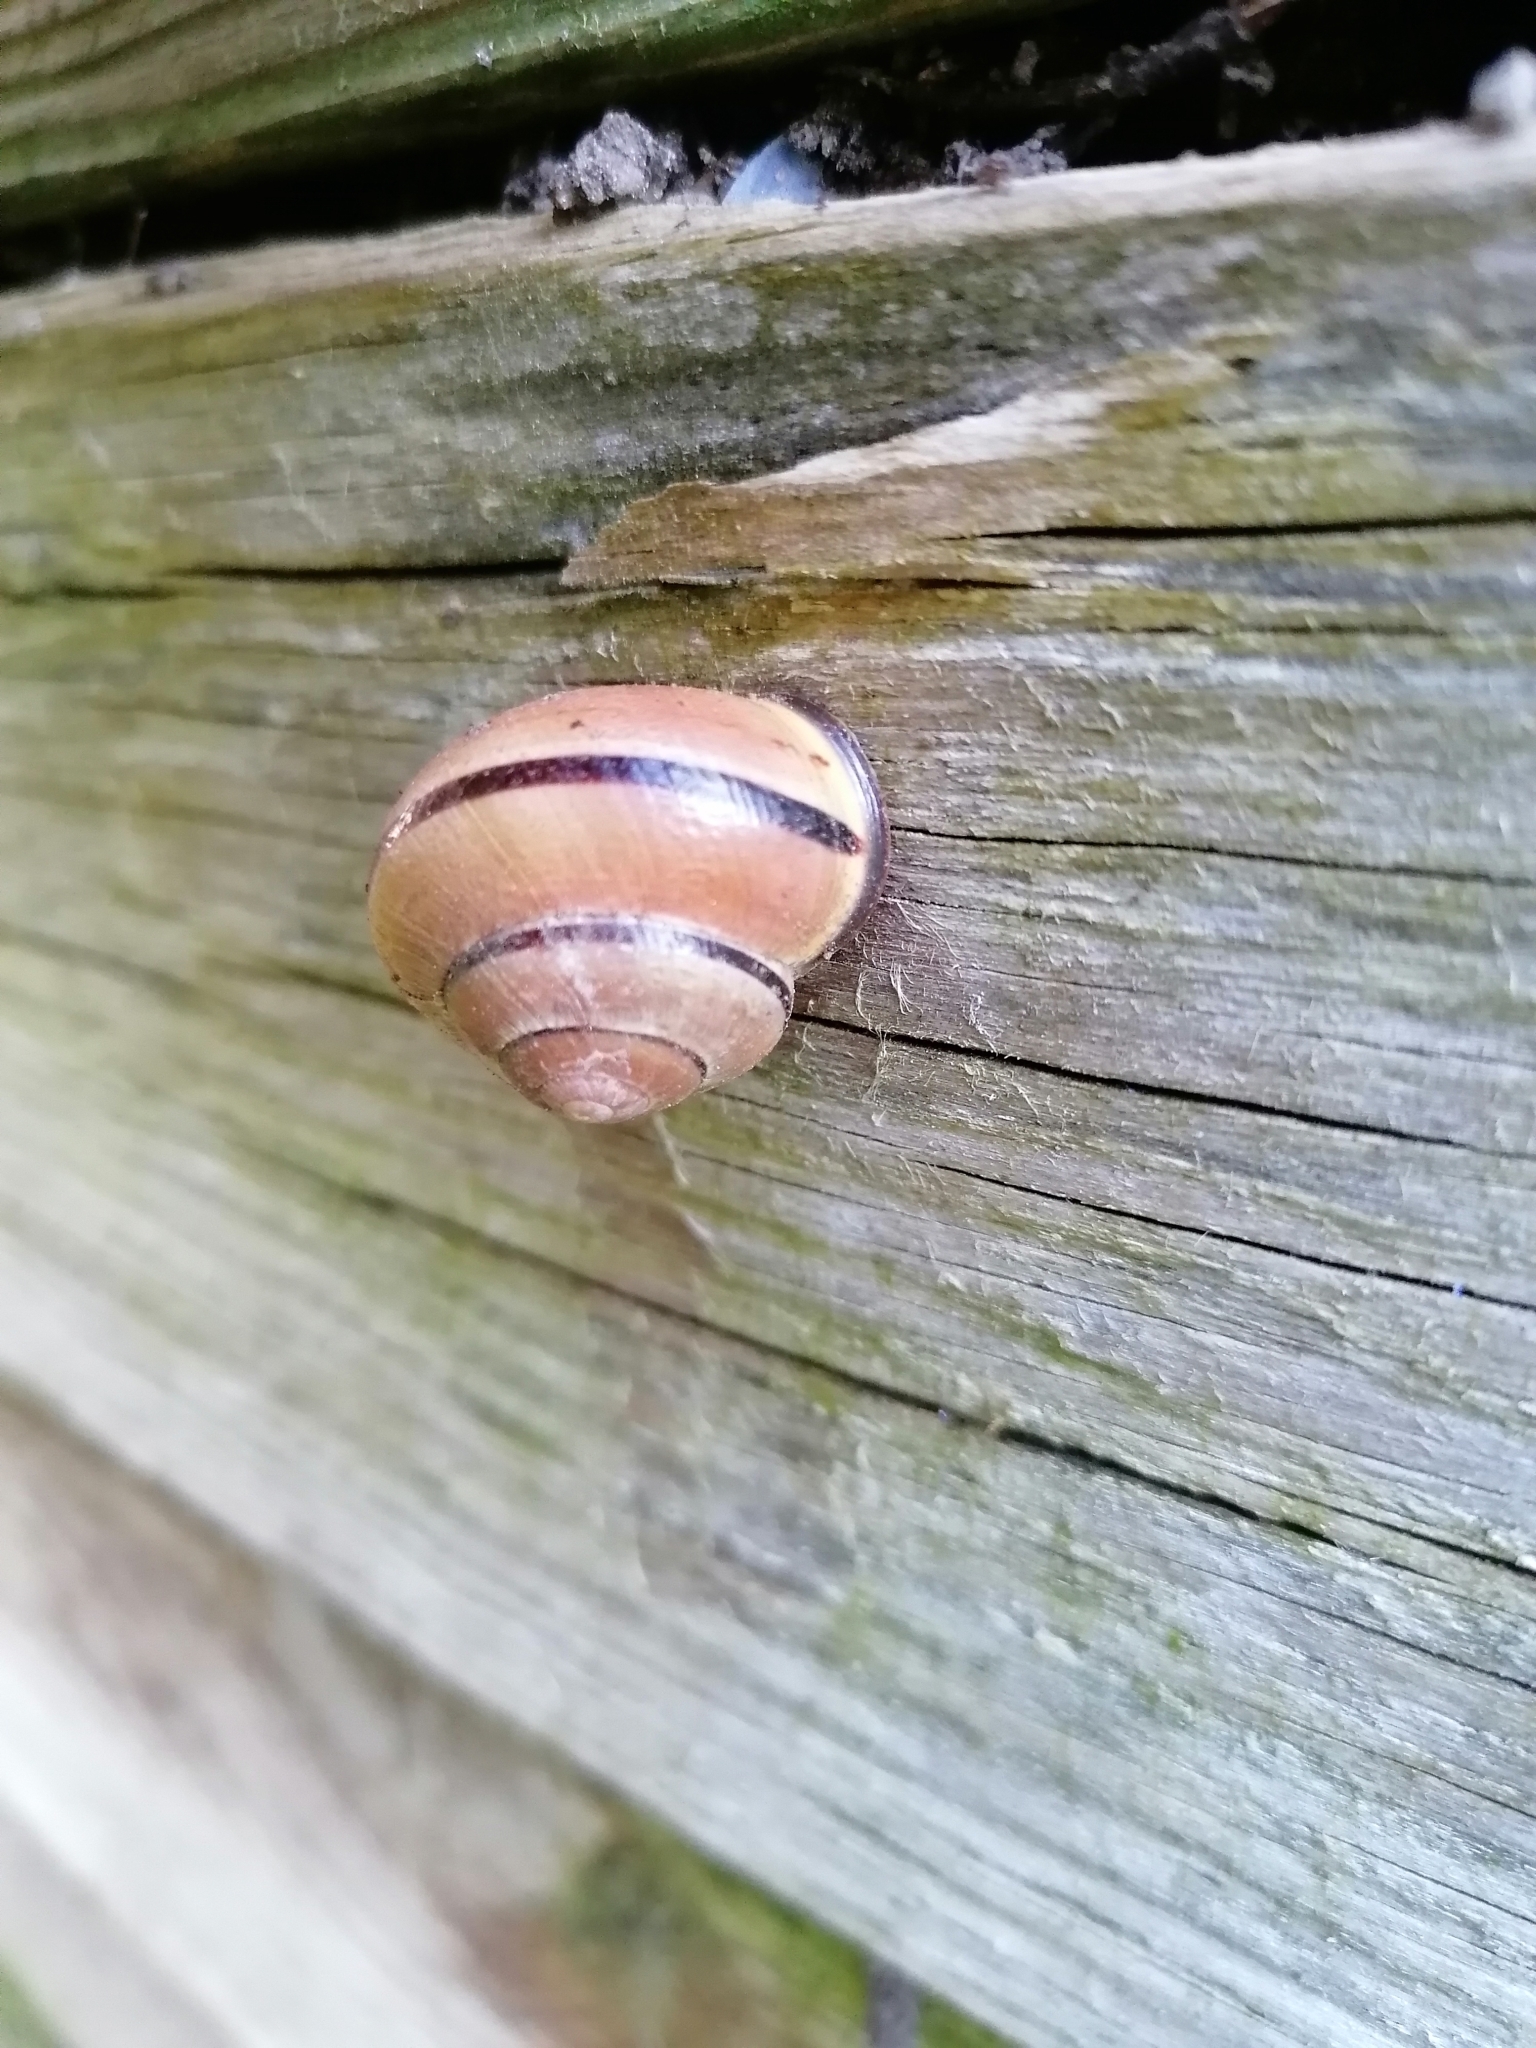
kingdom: Animalia
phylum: Mollusca
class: Gastropoda
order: Stylommatophora
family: Helicidae
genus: Cepaea
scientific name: Cepaea nemoralis
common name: Grovesnail
